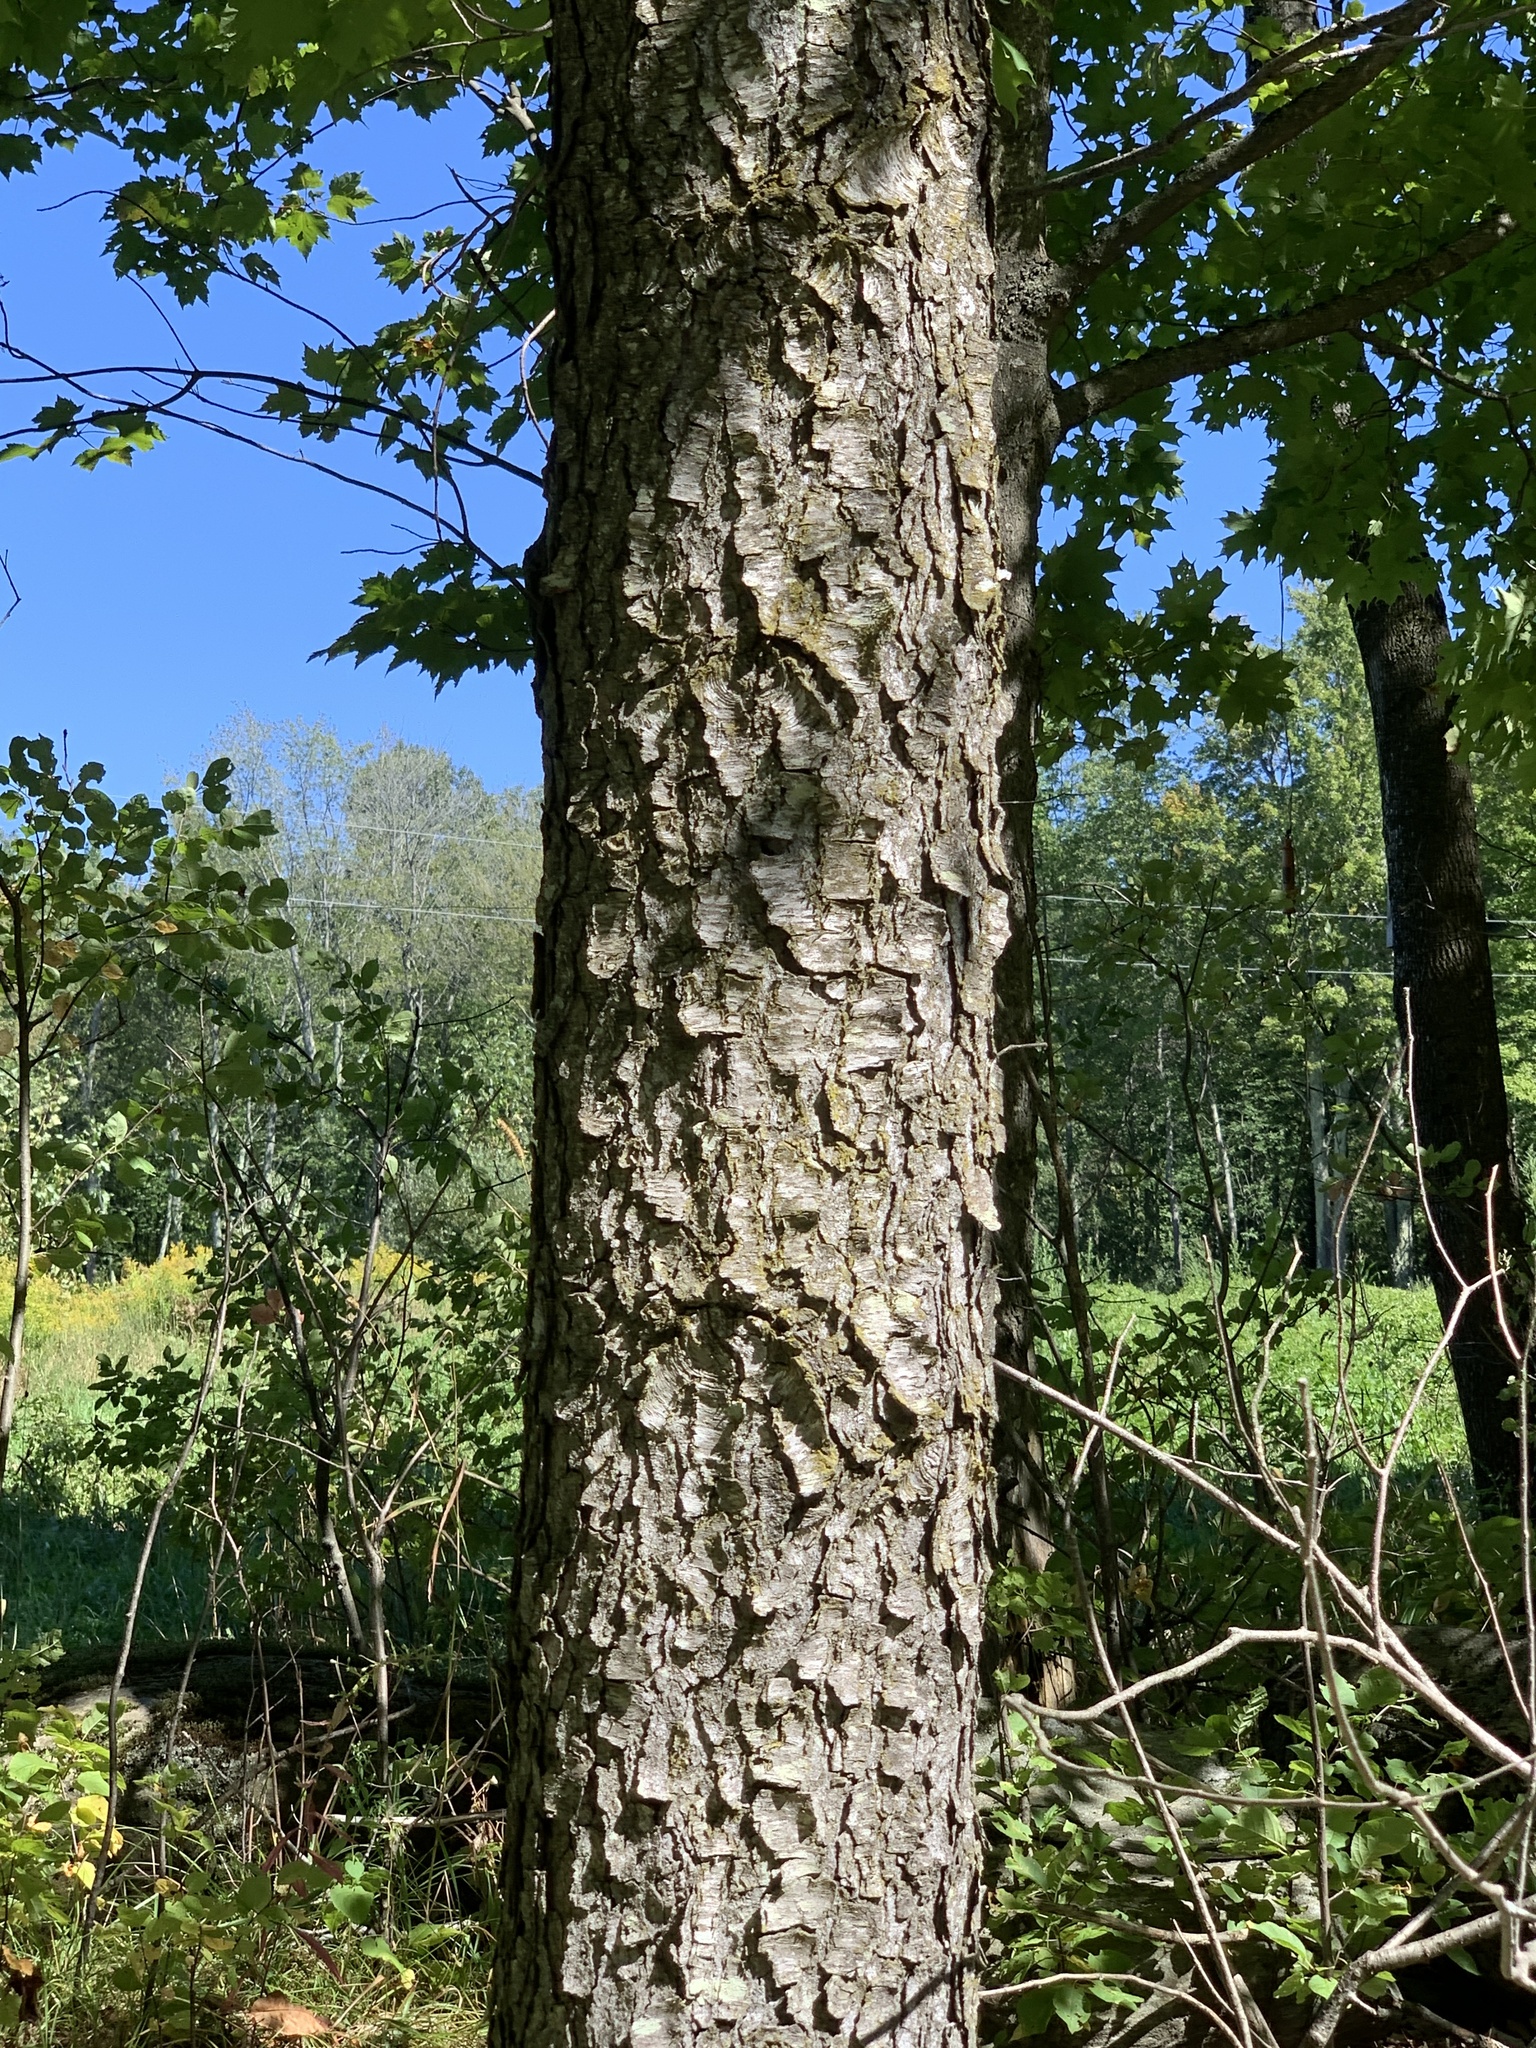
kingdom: Plantae
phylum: Tracheophyta
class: Magnoliopsida
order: Rosales
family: Rosaceae
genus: Prunus
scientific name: Prunus serotina
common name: Black cherry
